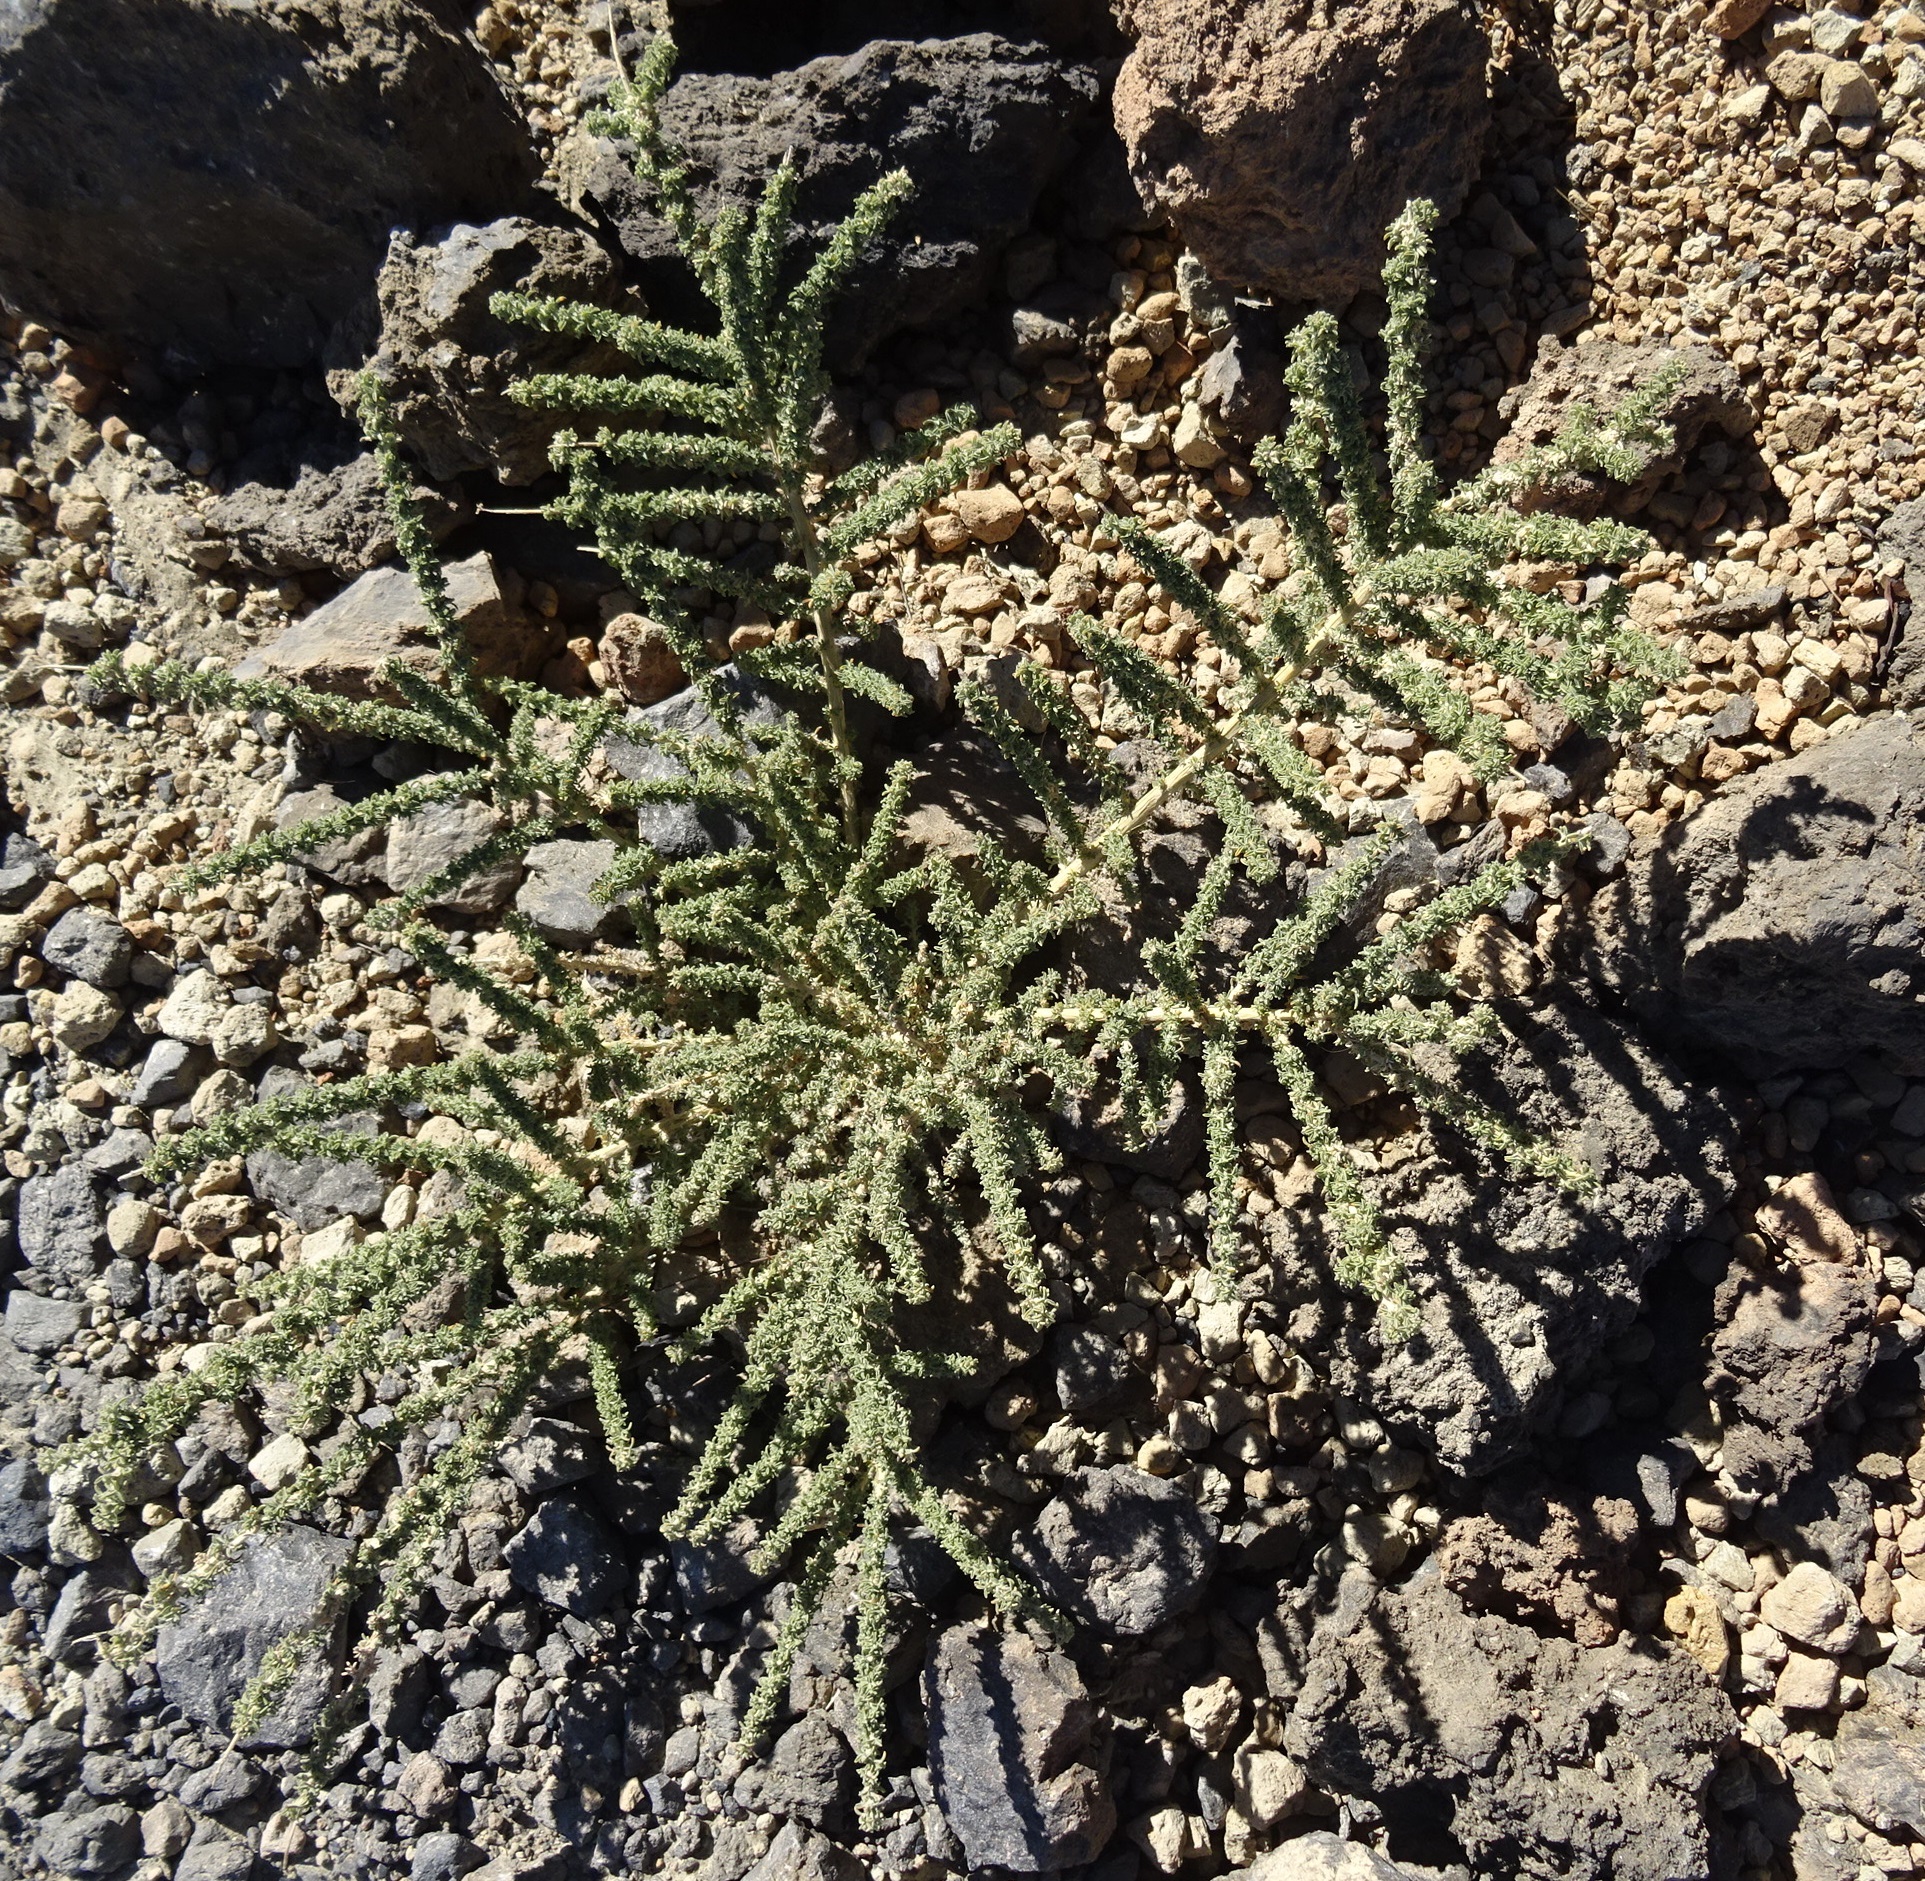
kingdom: Plantae
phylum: Tracheophyta
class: Magnoliopsida
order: Fabales
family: Fabaceae
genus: Adenocarpus
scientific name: Adenocarpus viscosus
